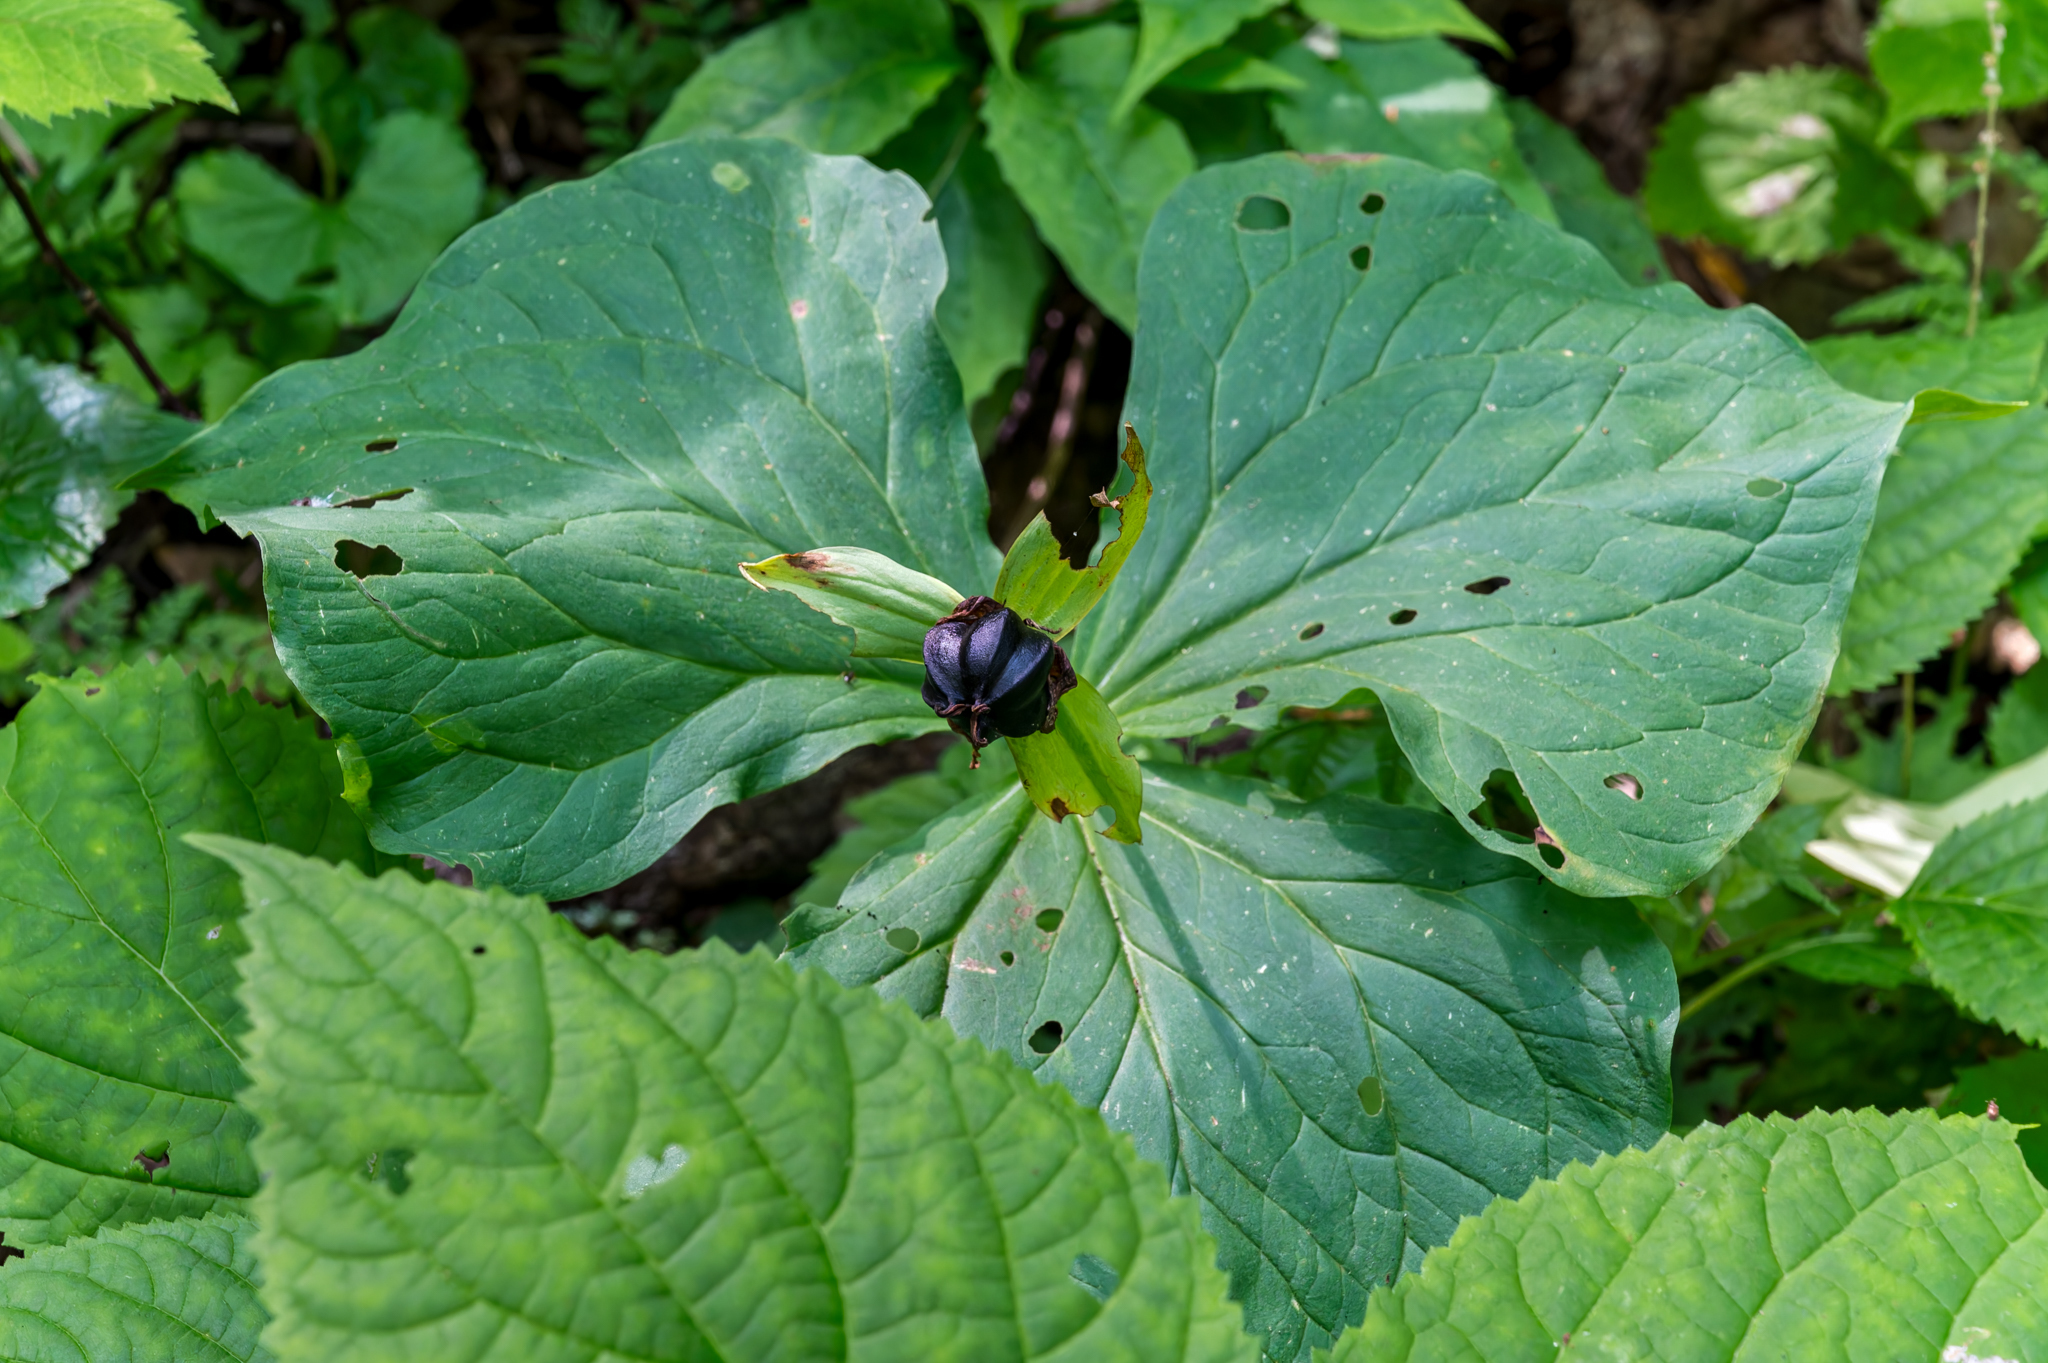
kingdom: Plantae
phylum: Tracheophyta
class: Liliopsida
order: Liliales
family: Melanthiaceae
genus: Trillium
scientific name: Trillium erectum
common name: Purple trillium
